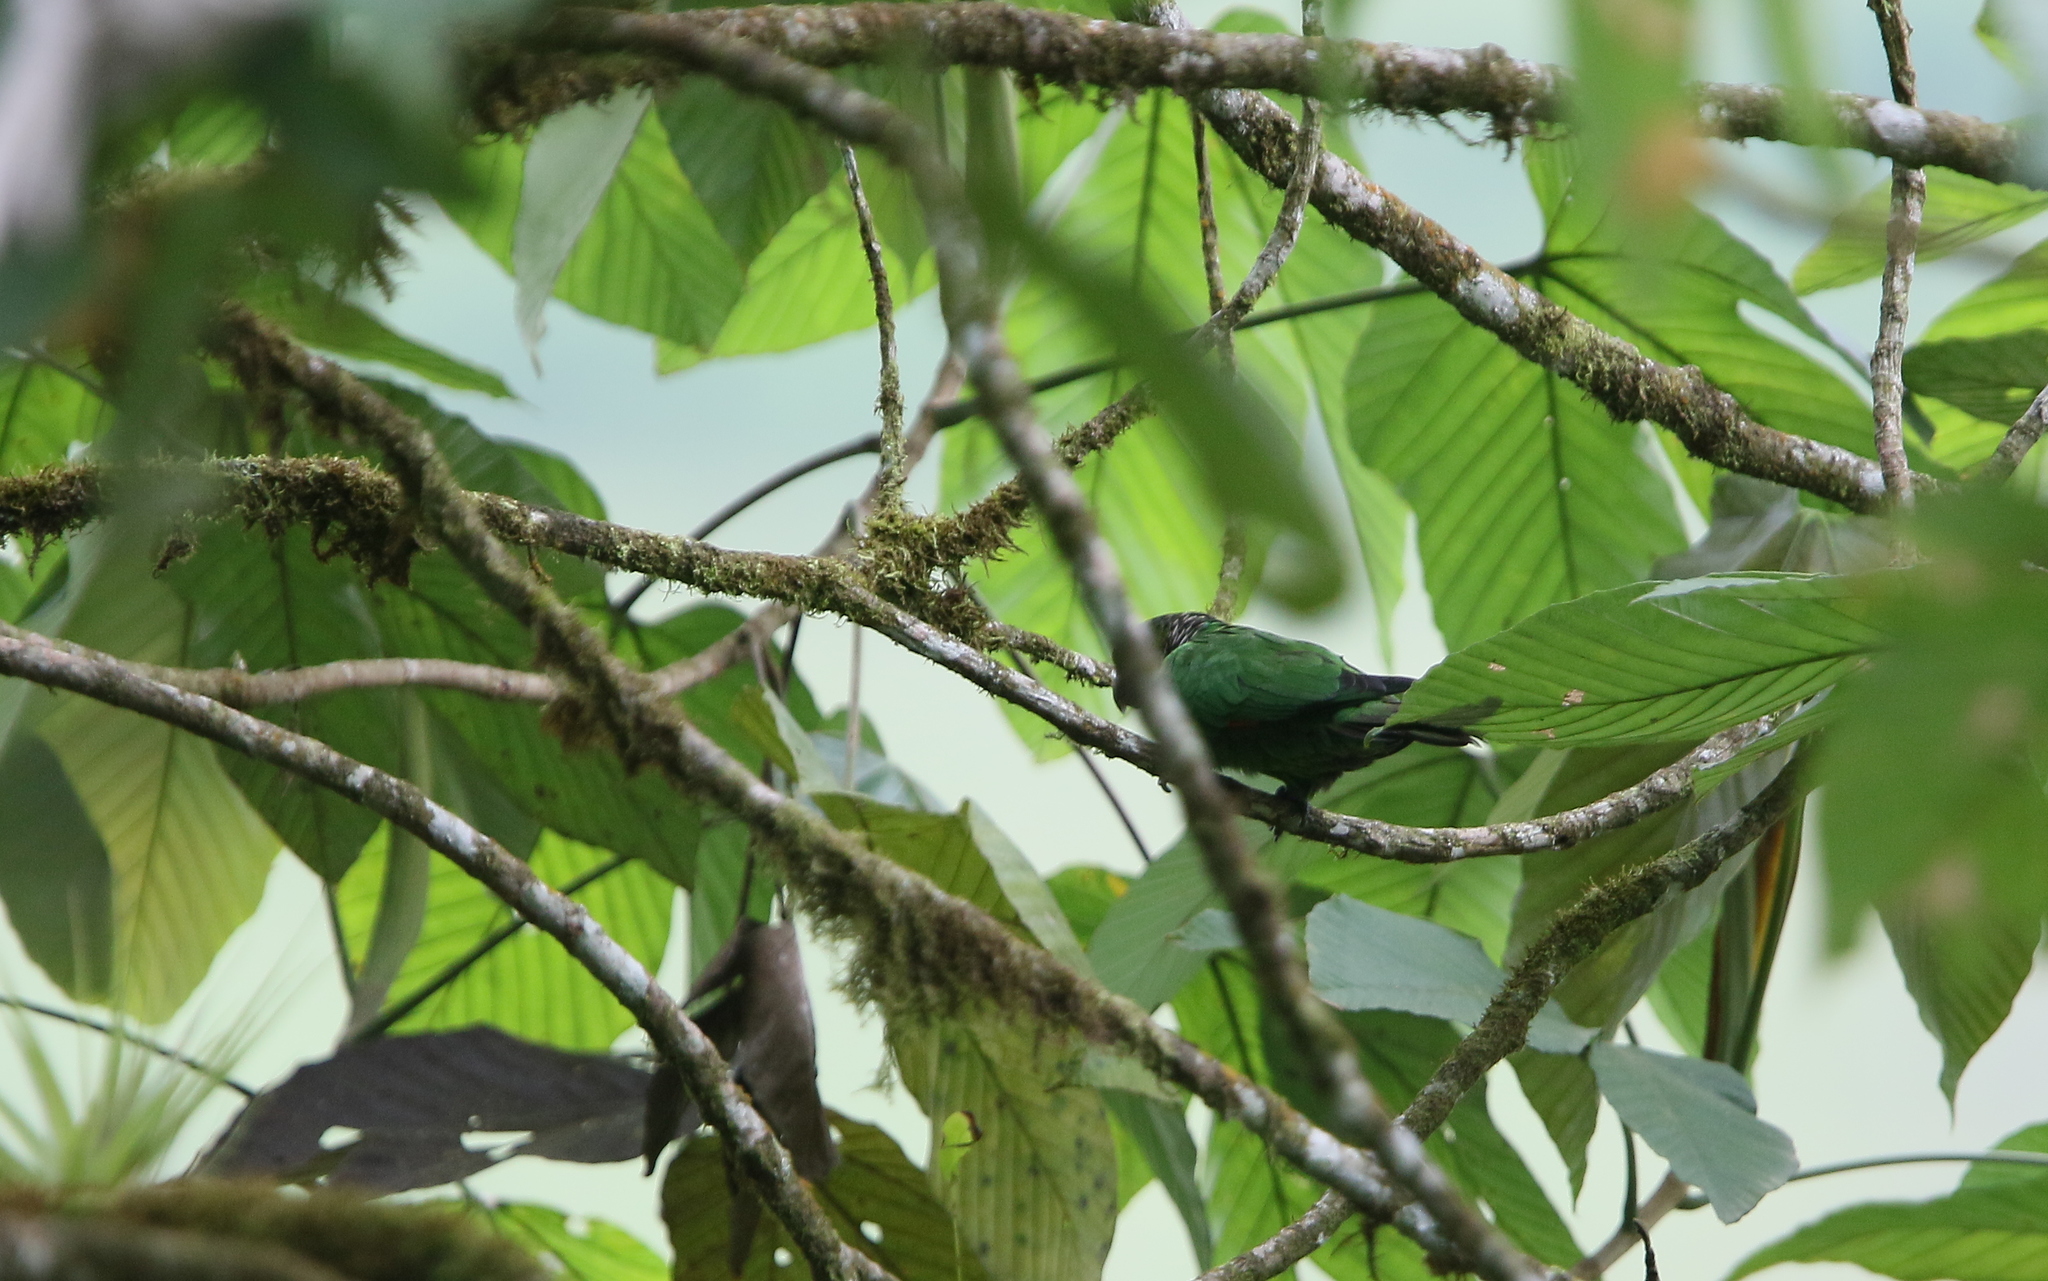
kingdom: Animalia
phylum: Chordata
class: Aves
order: Psittaciformes
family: Psittacidae
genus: Pyrrhura
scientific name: Pyrrhura melanura
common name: Maroon-tailed parakeet
